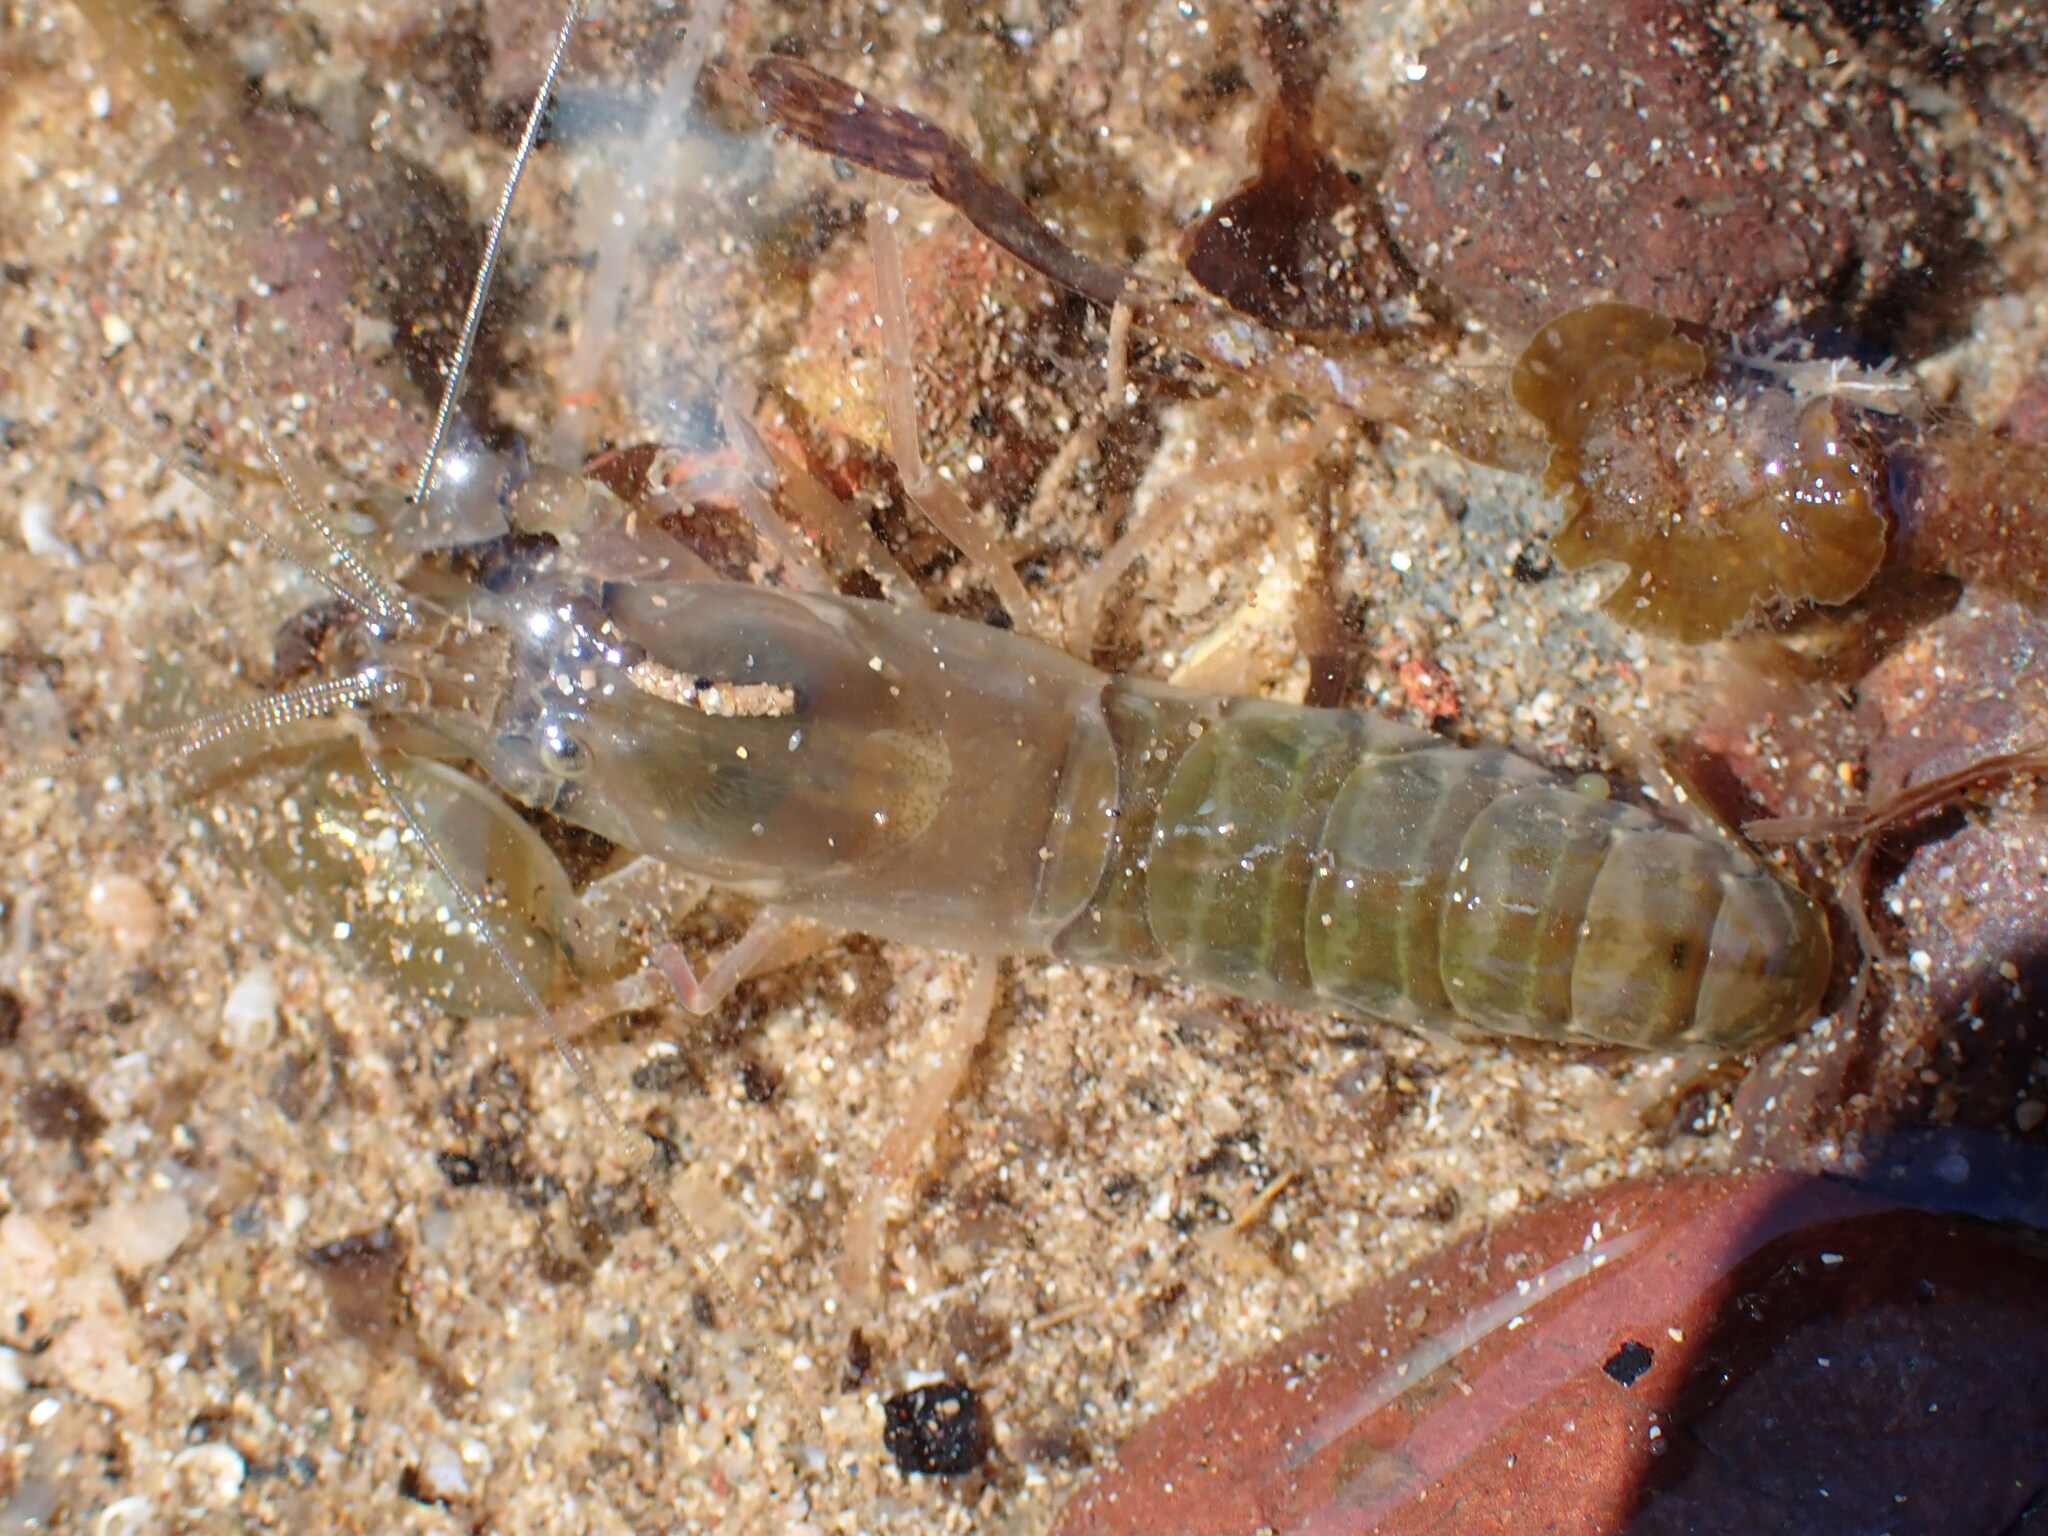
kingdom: Animalia
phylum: Arthropoda
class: Malacostraca
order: Decapoda
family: Alpheidae
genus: Alpheus
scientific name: Alpheus richardsoni
